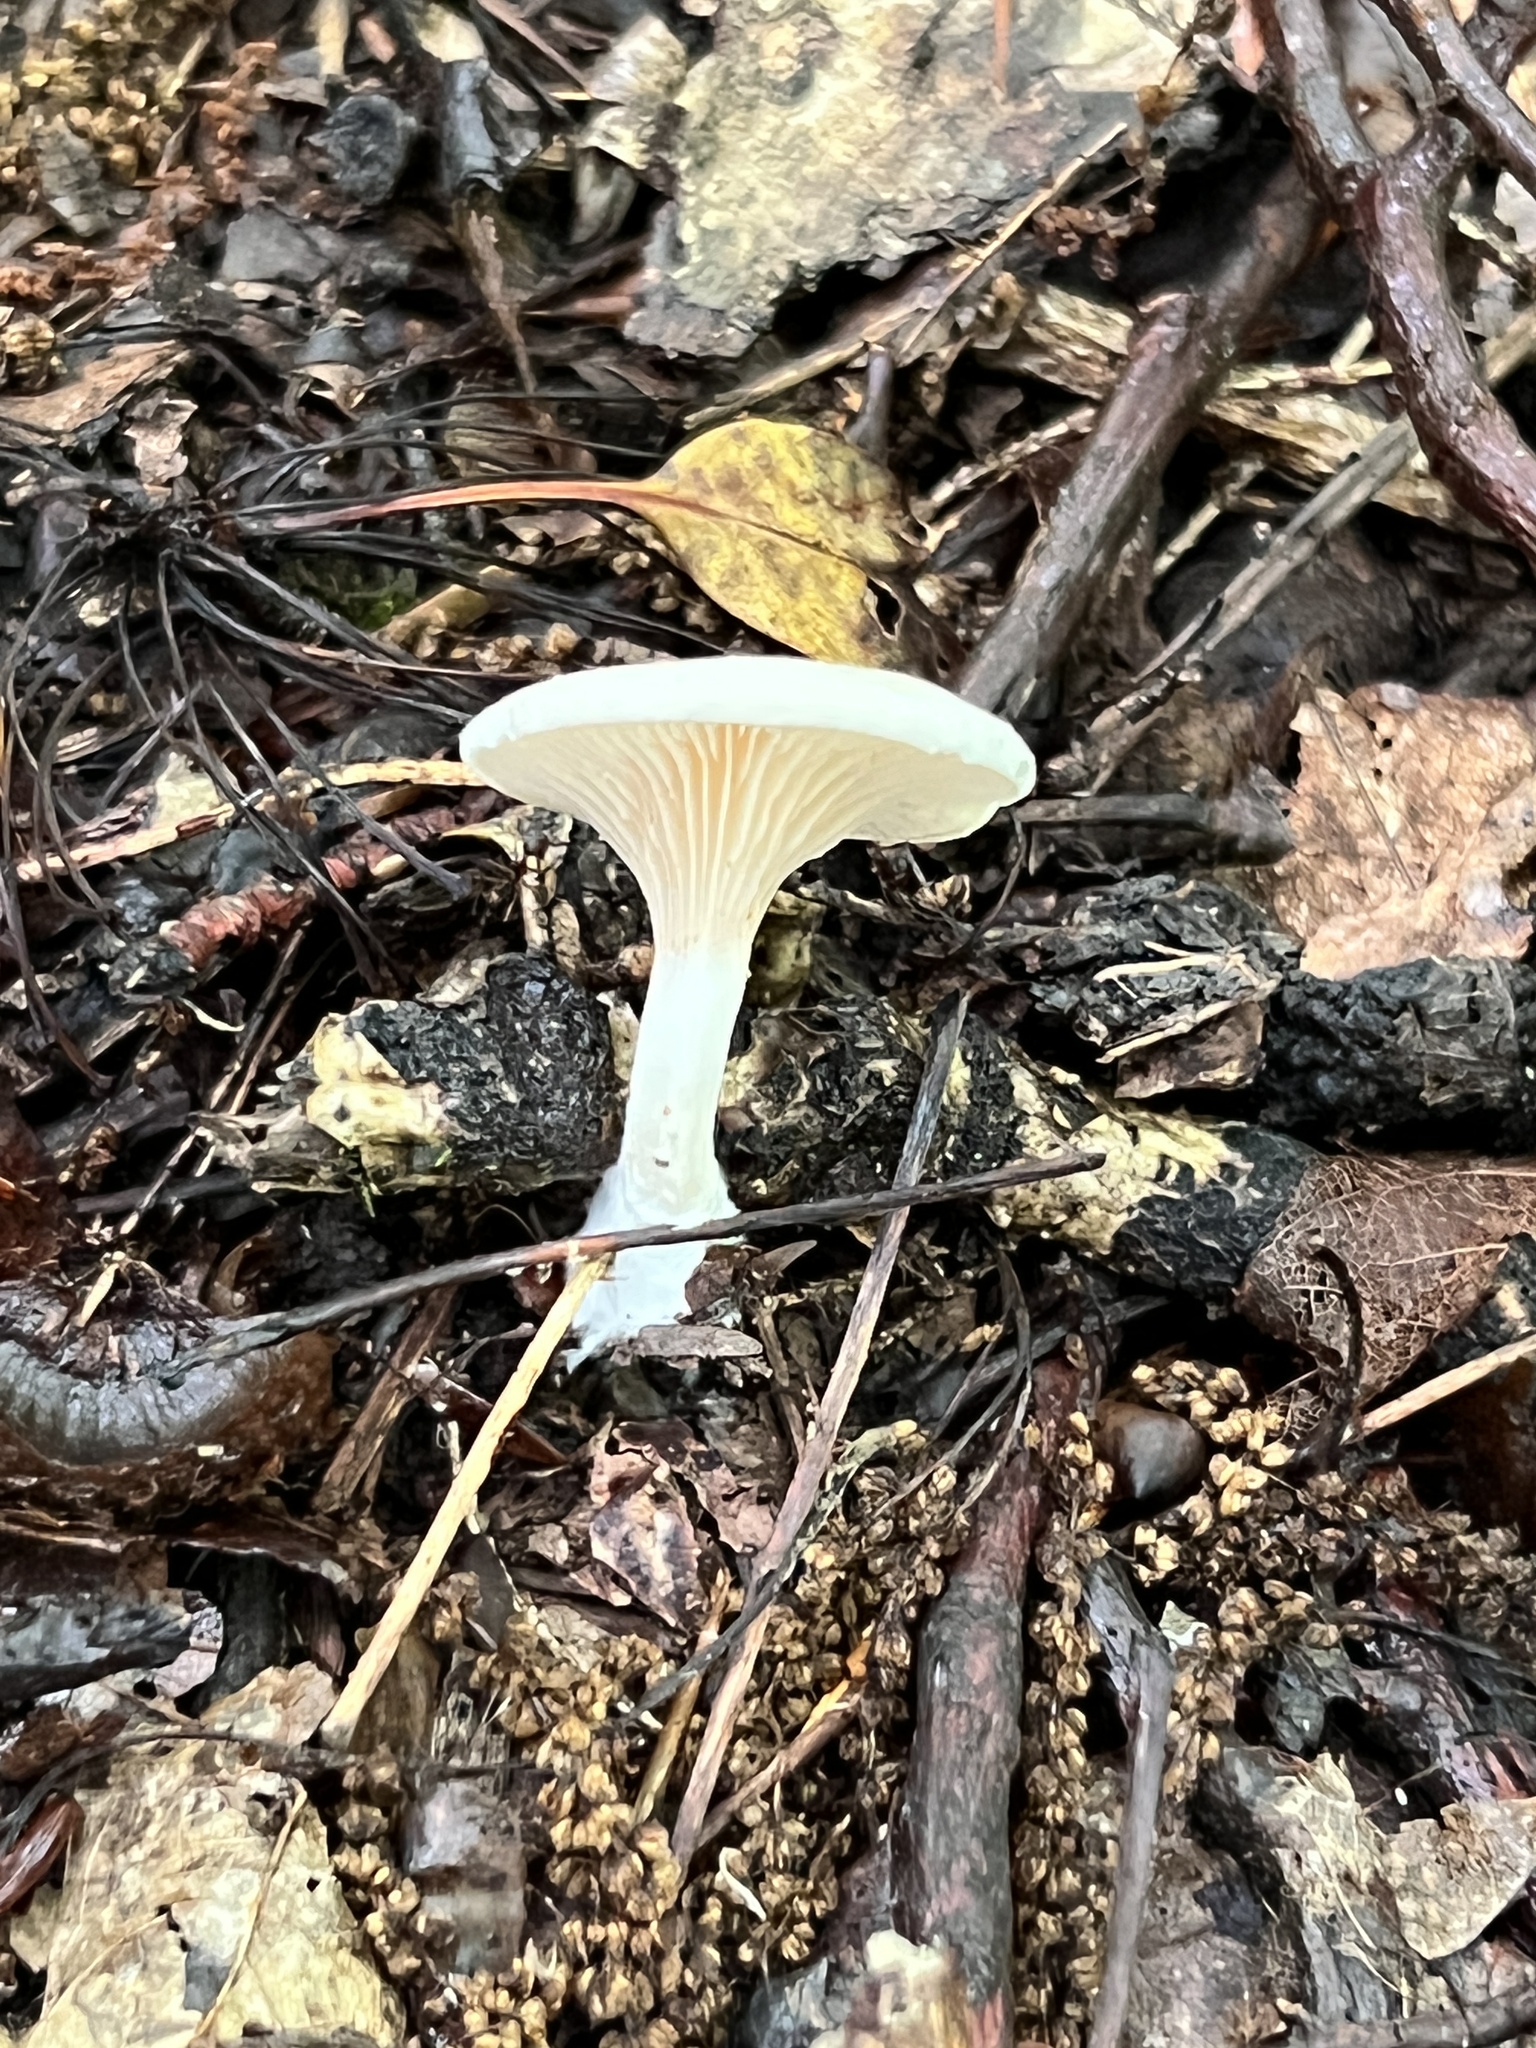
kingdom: Fungi
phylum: Basidiomycota
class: Agaricomycetes
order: Agaricales
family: Entolomataceae
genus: Clitopilus
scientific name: Clitopilus cystidiatus
